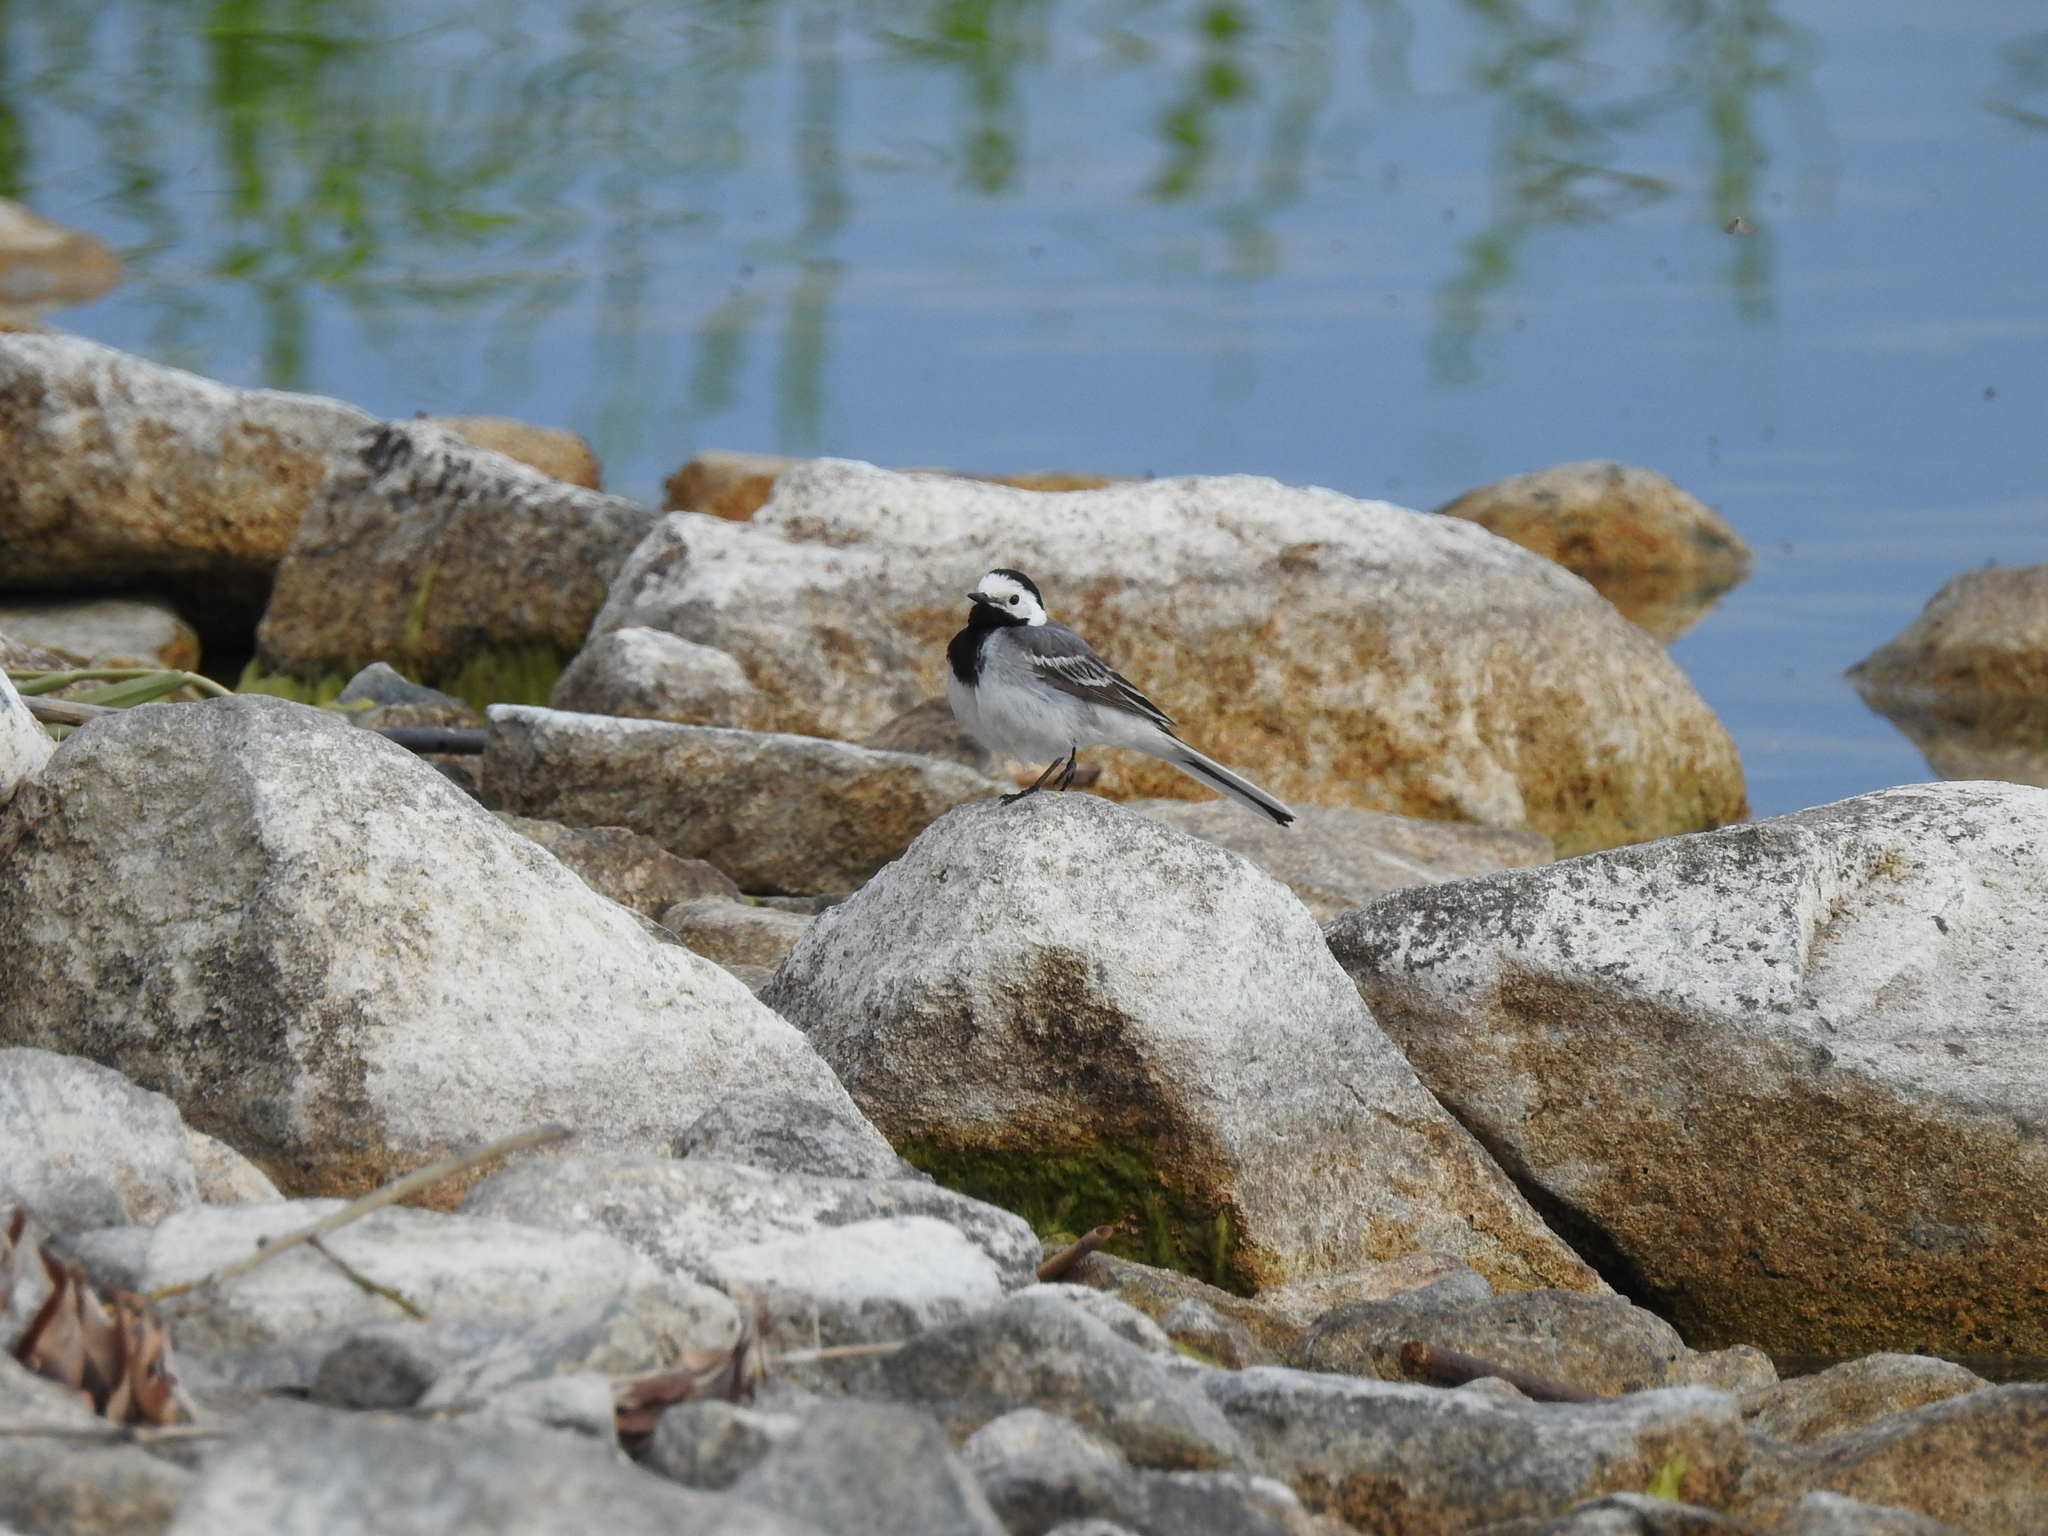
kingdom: Animalia
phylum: Chordata
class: Aves
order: Passeriformes
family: Motacillidae
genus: Motacilla
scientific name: Motacilla alba
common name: White wagtail
